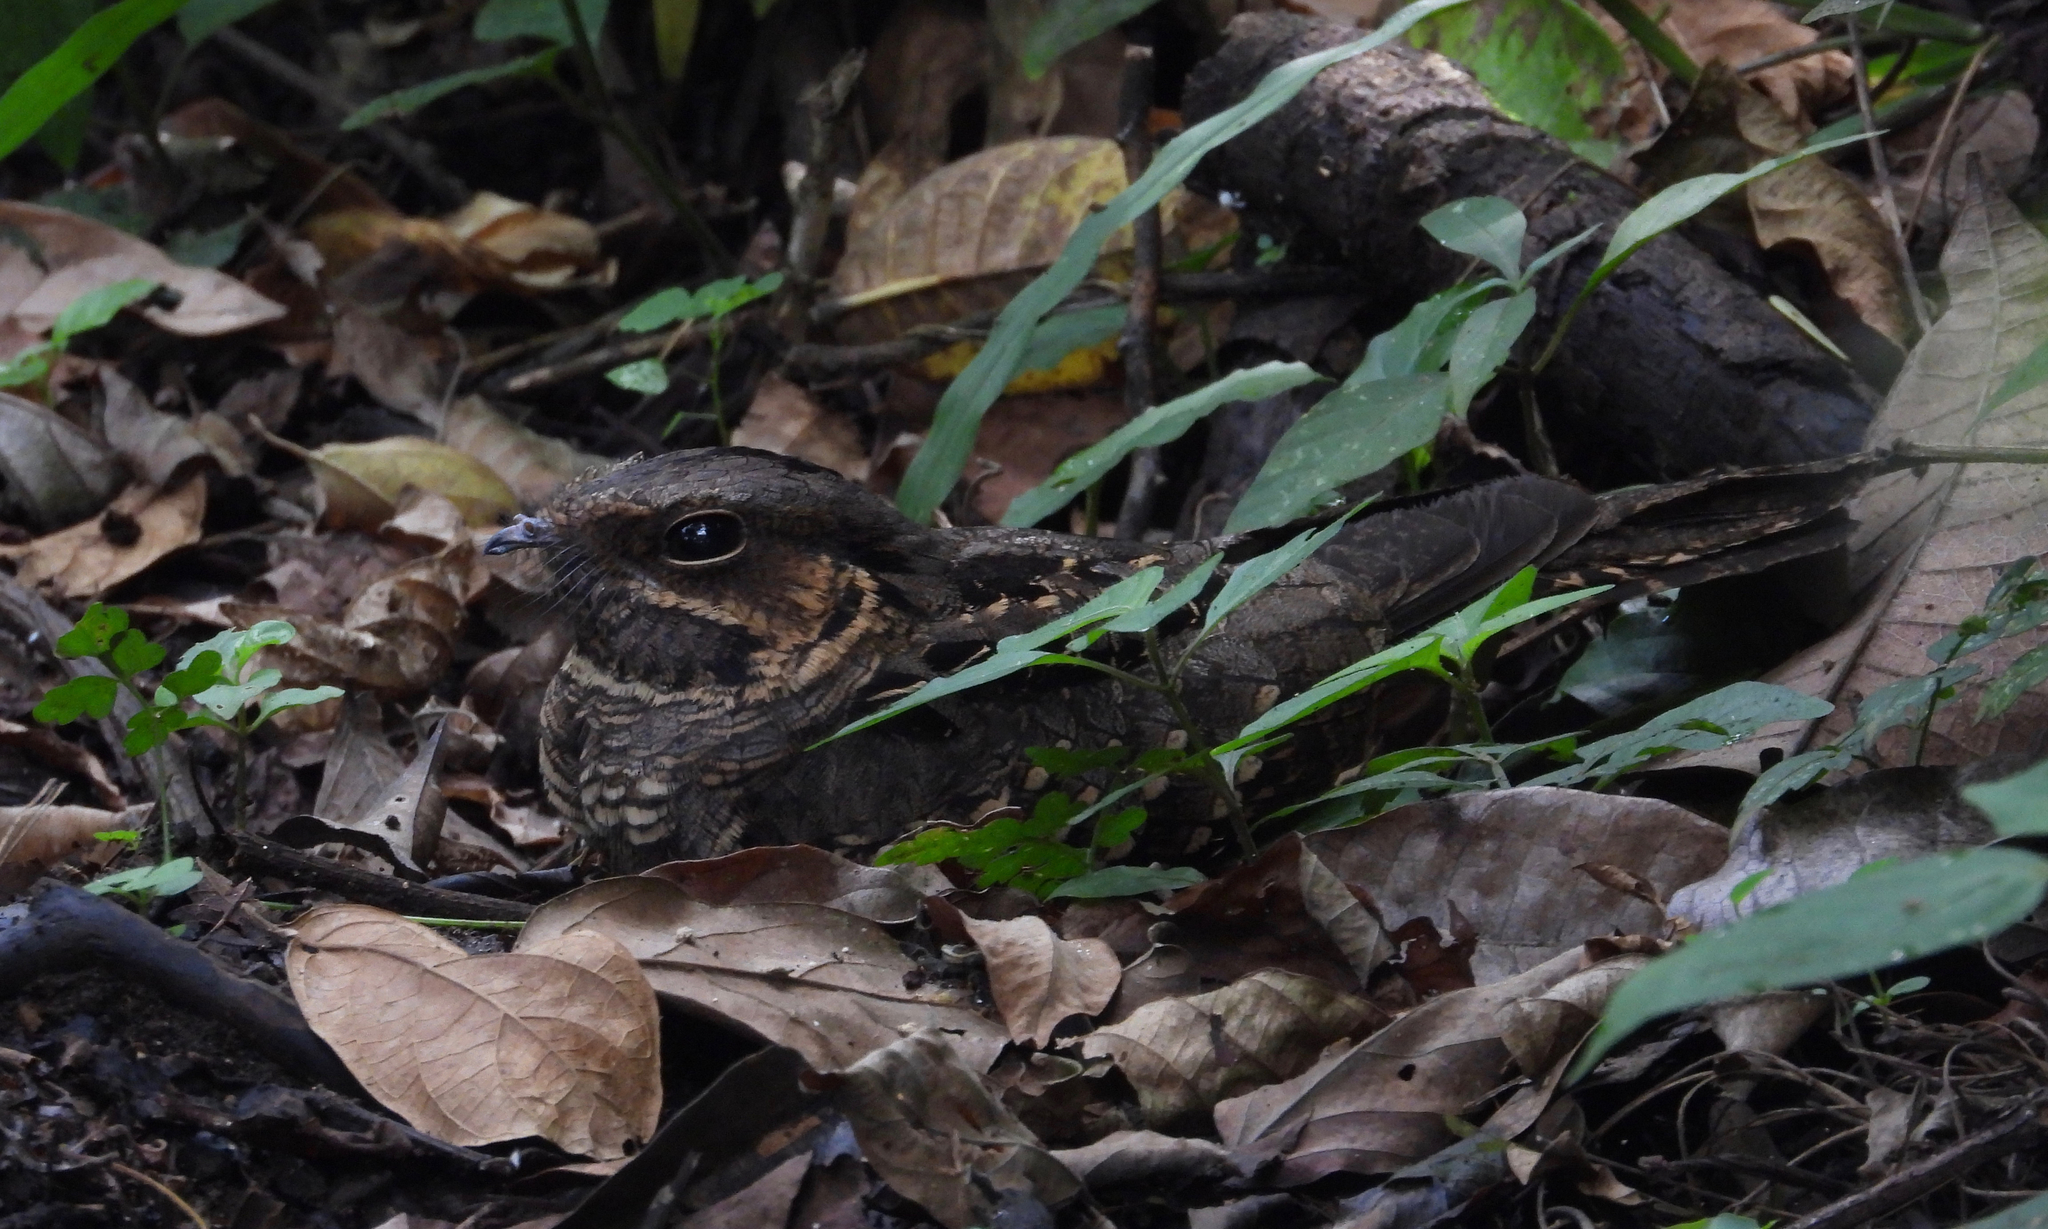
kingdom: Animalia
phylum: Chordata
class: Aves
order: Caprimulgiformes
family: Caprimulgidae
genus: Nyctidromus
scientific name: Nyctidromus albicollis
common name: Pauraque
